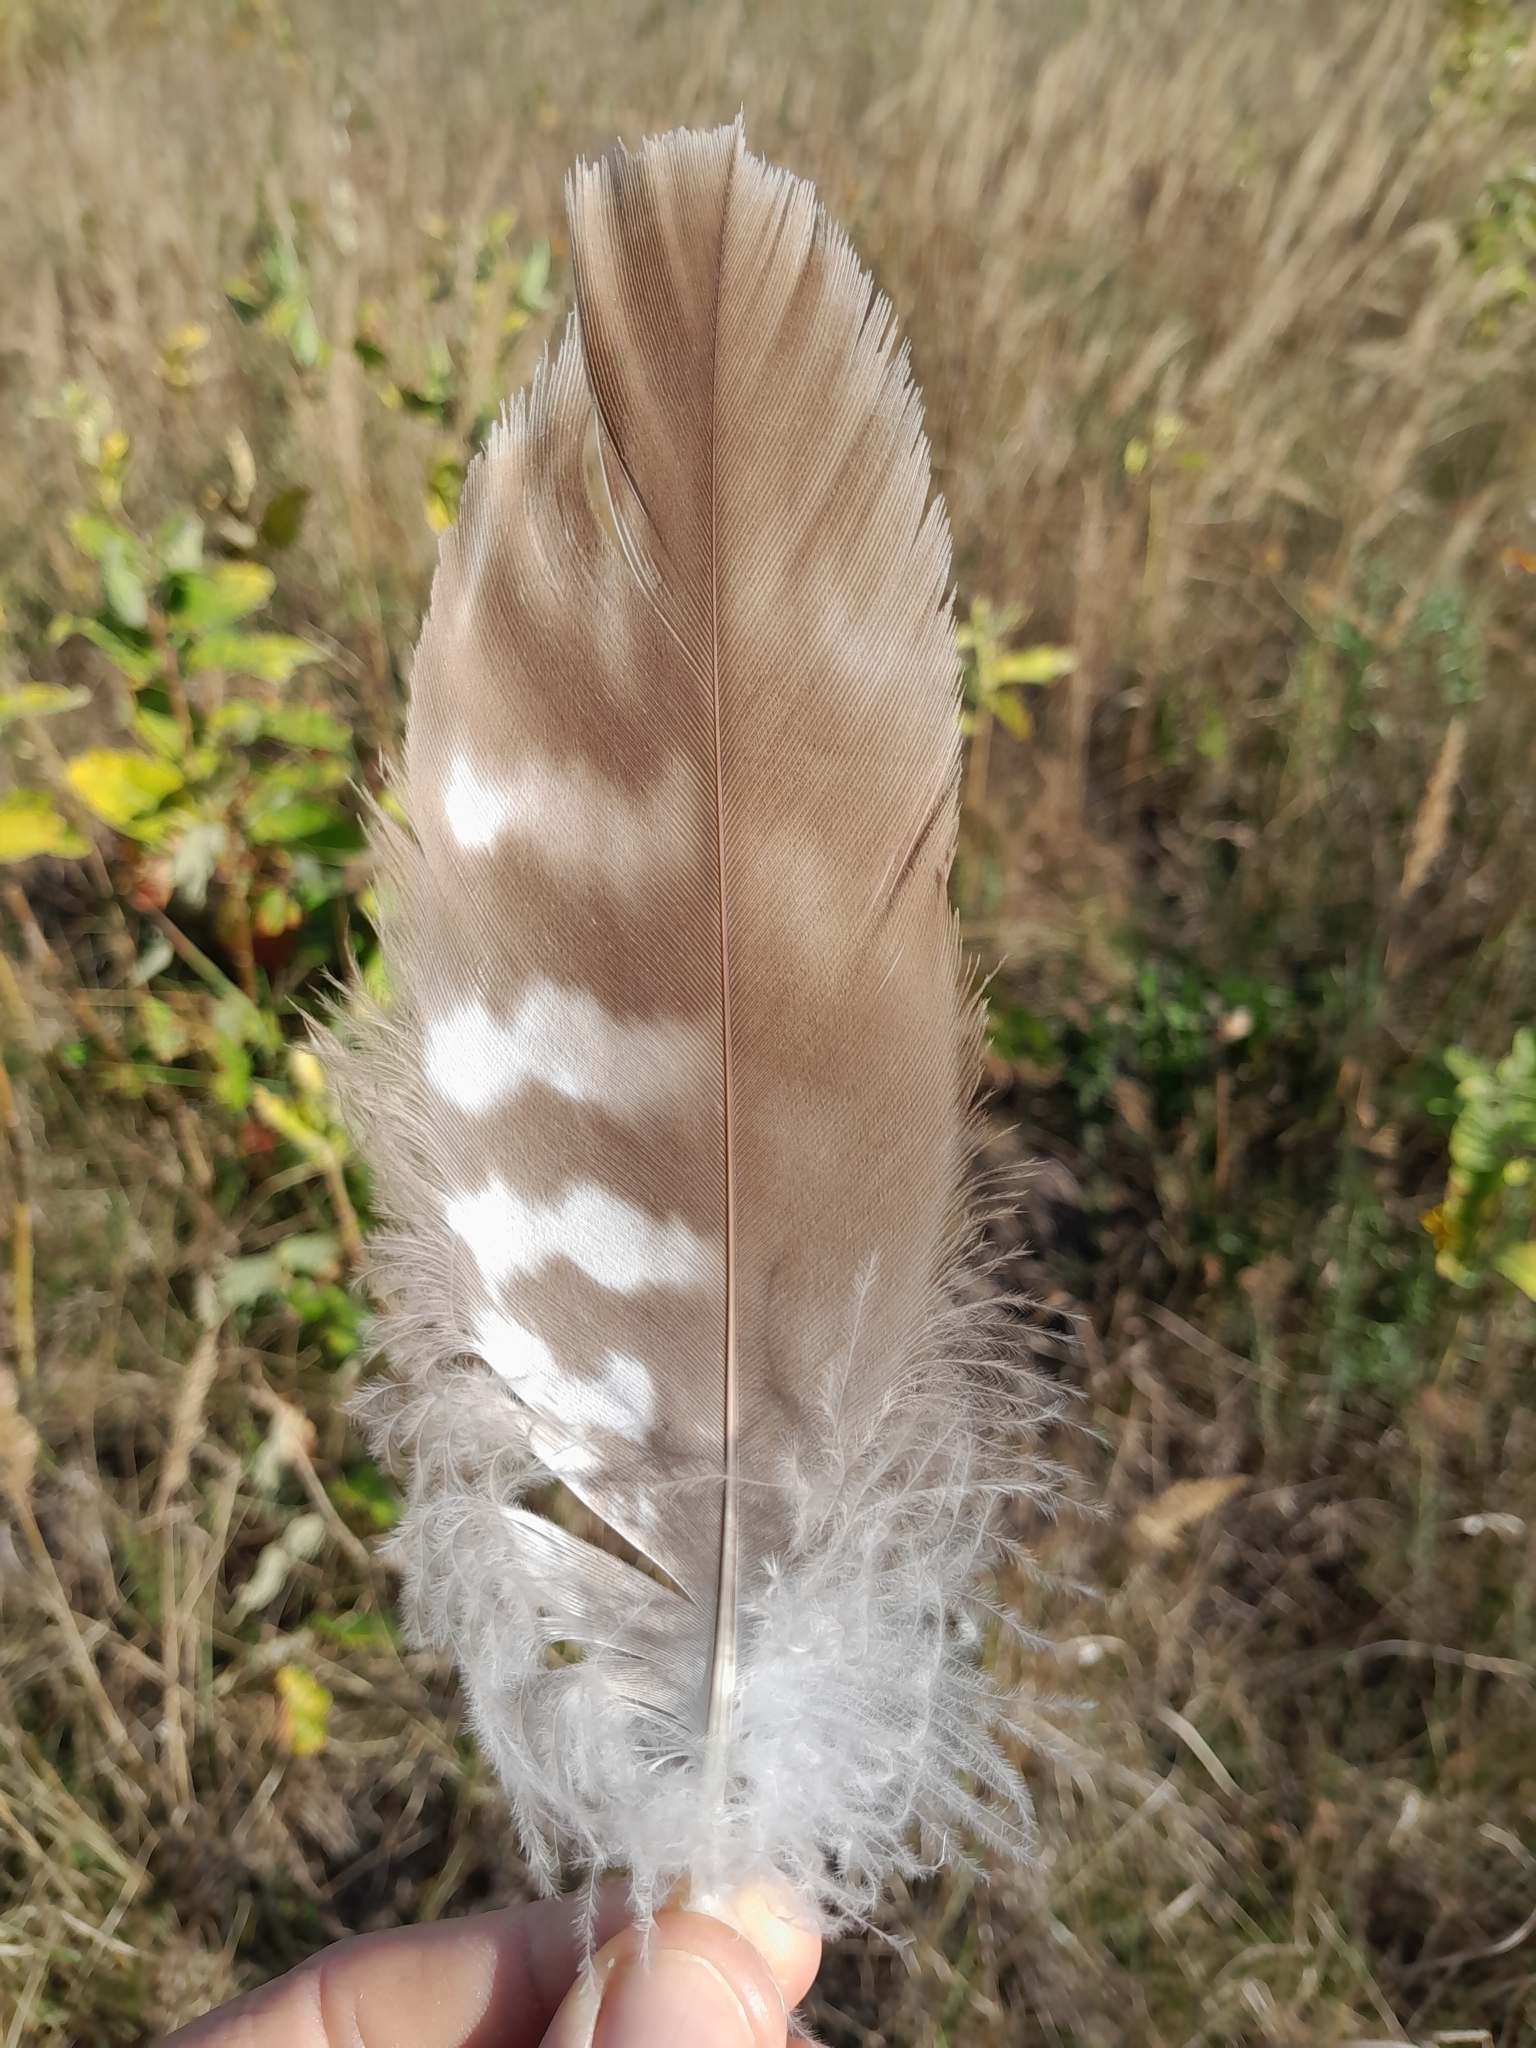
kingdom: Animalia
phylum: Chordata
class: Aves
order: Accipitriformes
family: Accipitridae
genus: Buteo
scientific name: Buteo buteo
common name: Common buzzard
